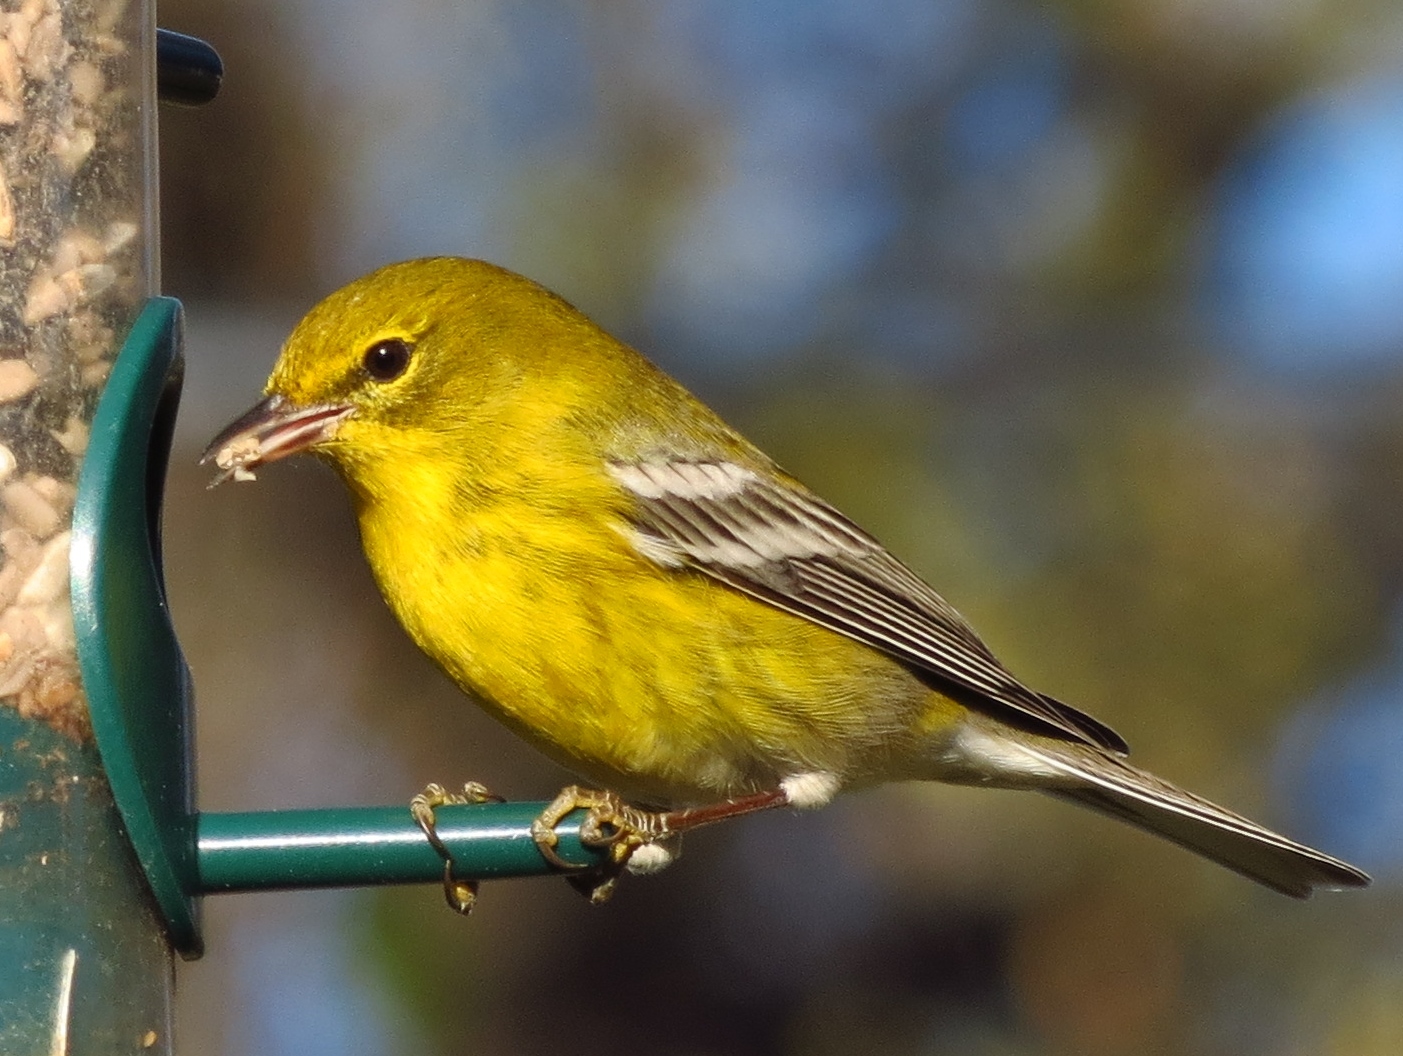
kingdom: Animalia
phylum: Chordata
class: Aves
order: Passeriformes
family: Parulidae
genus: Setophaga
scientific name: Setophaga pinus
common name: Pine warbler
